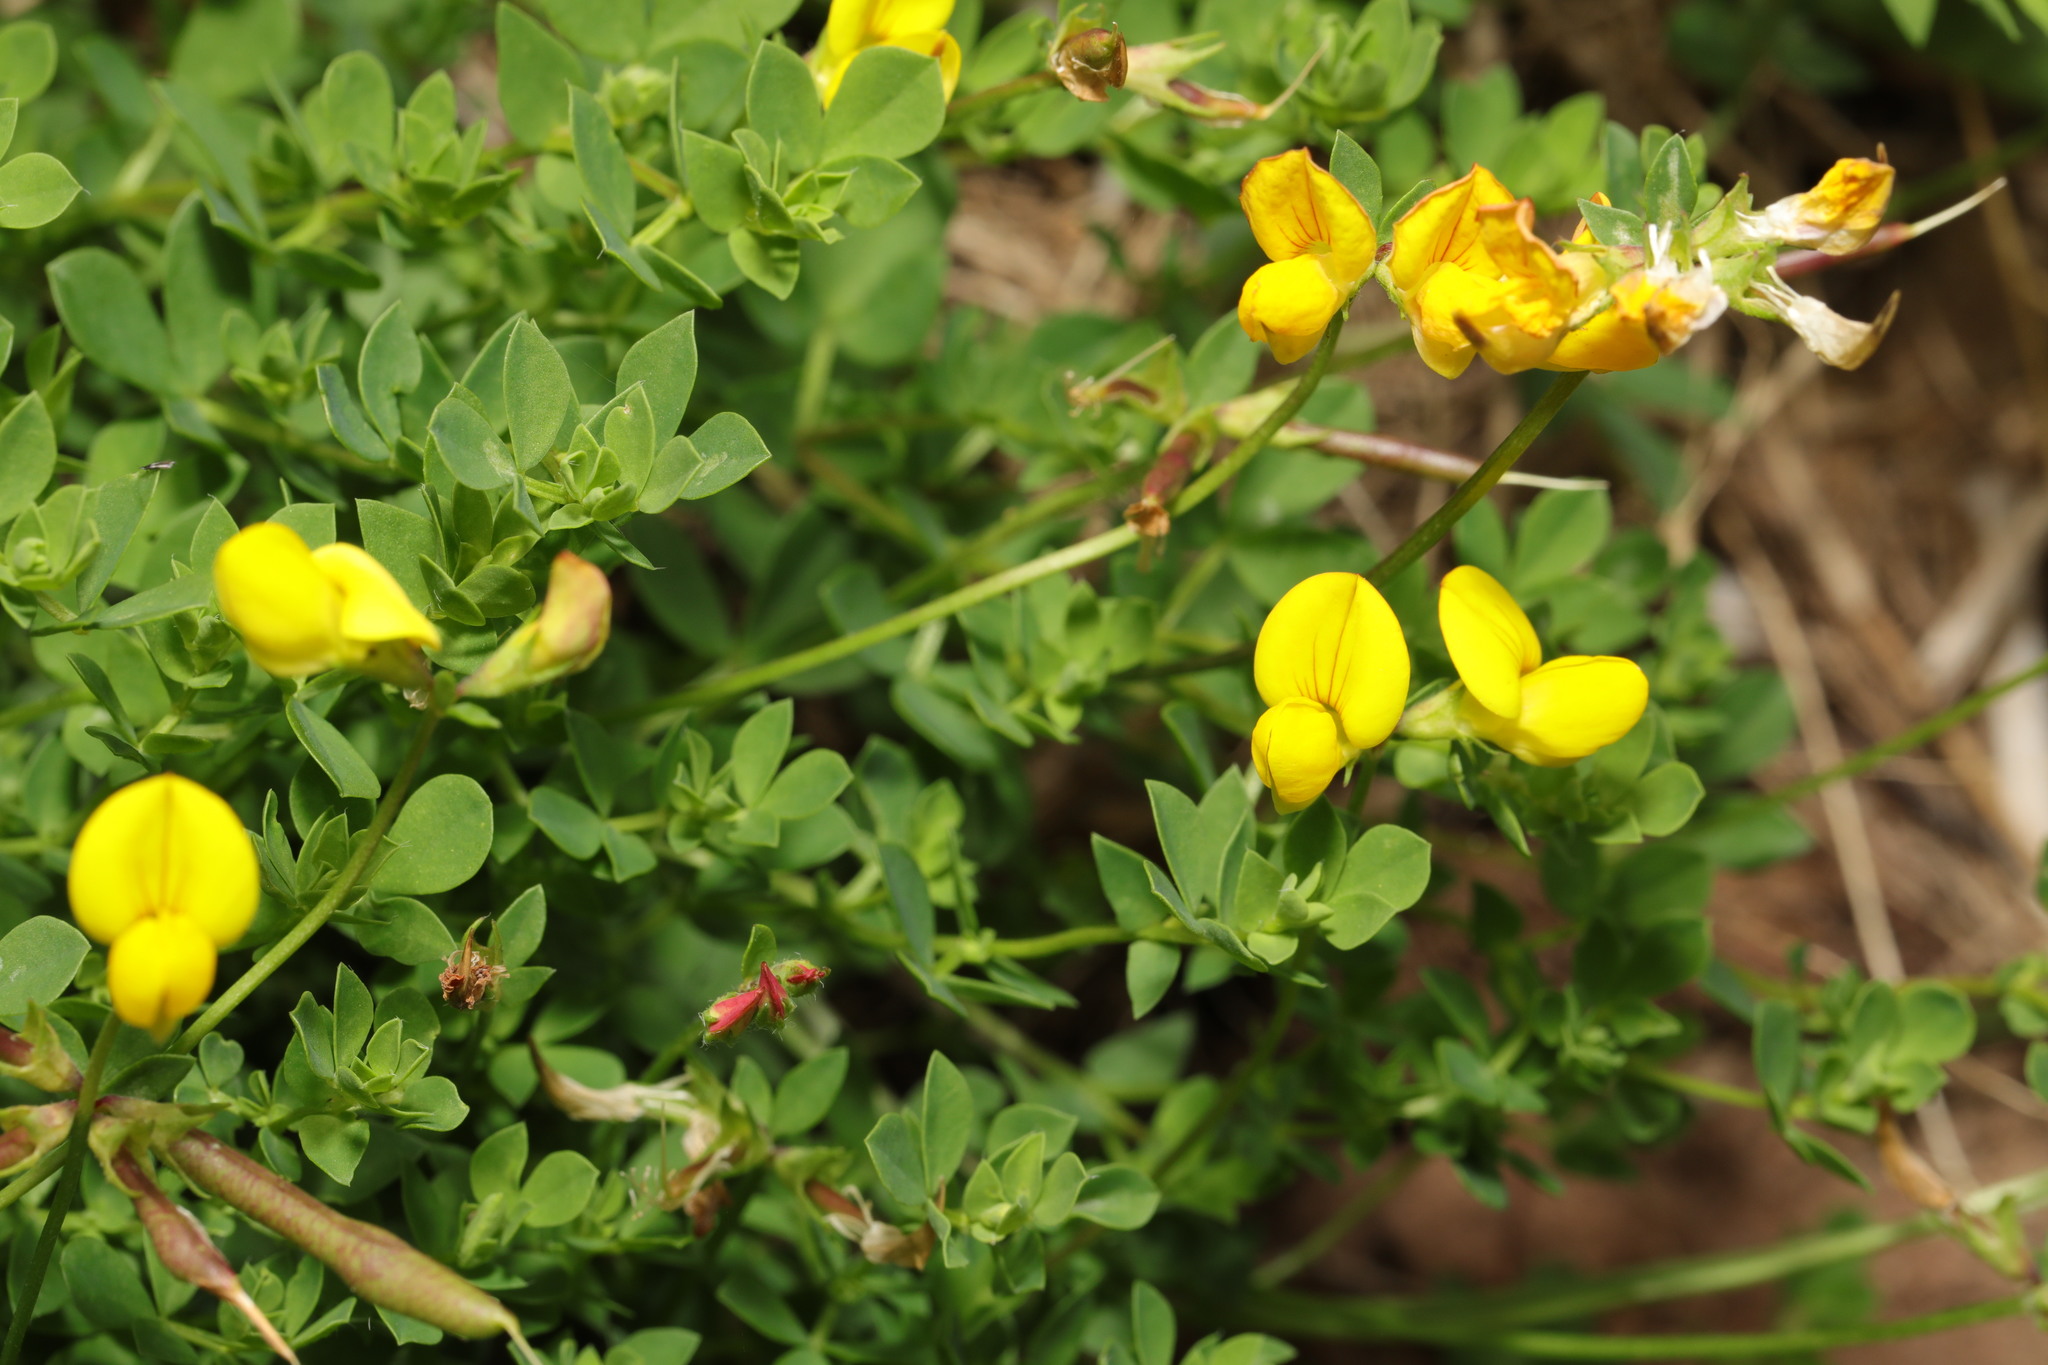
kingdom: Plantae
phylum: Tracheophyta
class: Magnoliopsida
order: Fabales
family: Fabaceae
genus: Lotus
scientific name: Lotus corniculatus
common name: Common bird's-foot-trefoil
